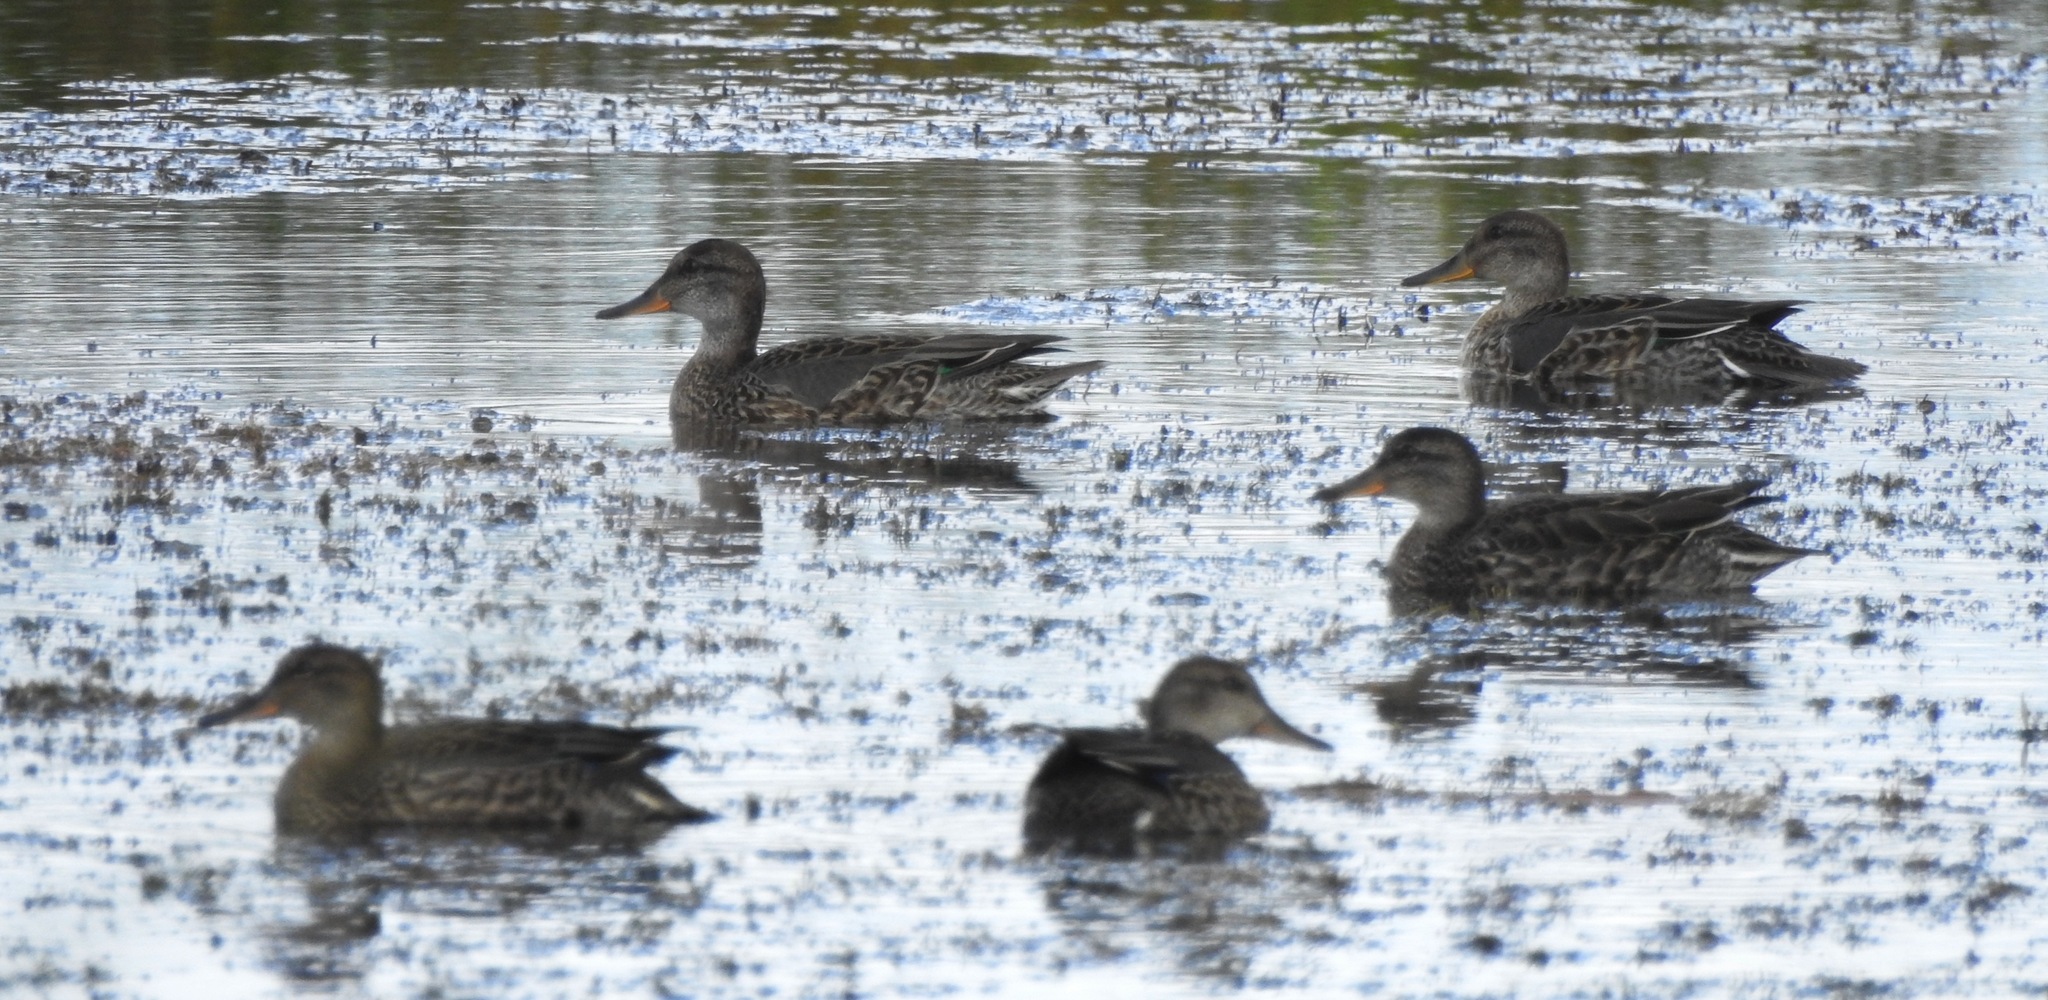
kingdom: Animalia
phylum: Chordata
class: Aves
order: Anseriformes
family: Anatidae
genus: Mareca
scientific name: Mareca strepera
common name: Gadwall
